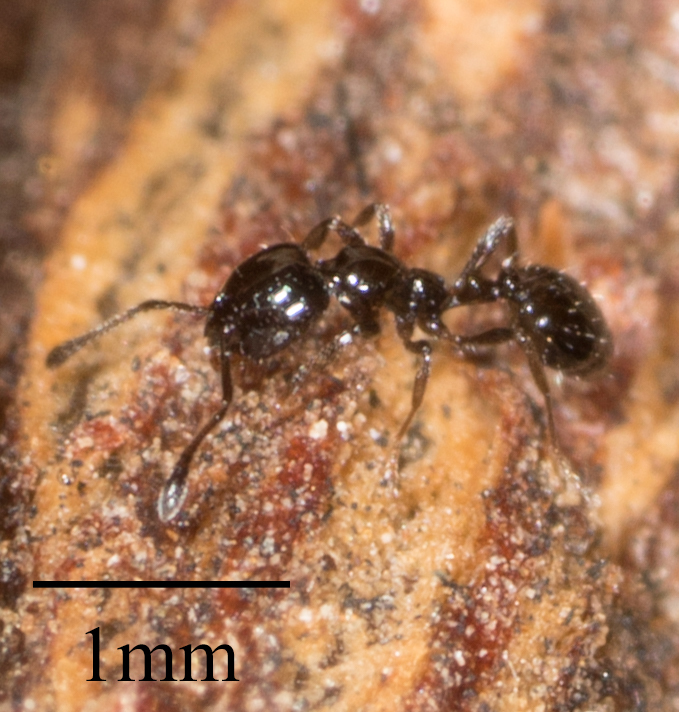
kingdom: Animalia
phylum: Arthropoda
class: Insecta
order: Hymenoptera
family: Formicidae
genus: Monomorium
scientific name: Monomorium ergatogyna
